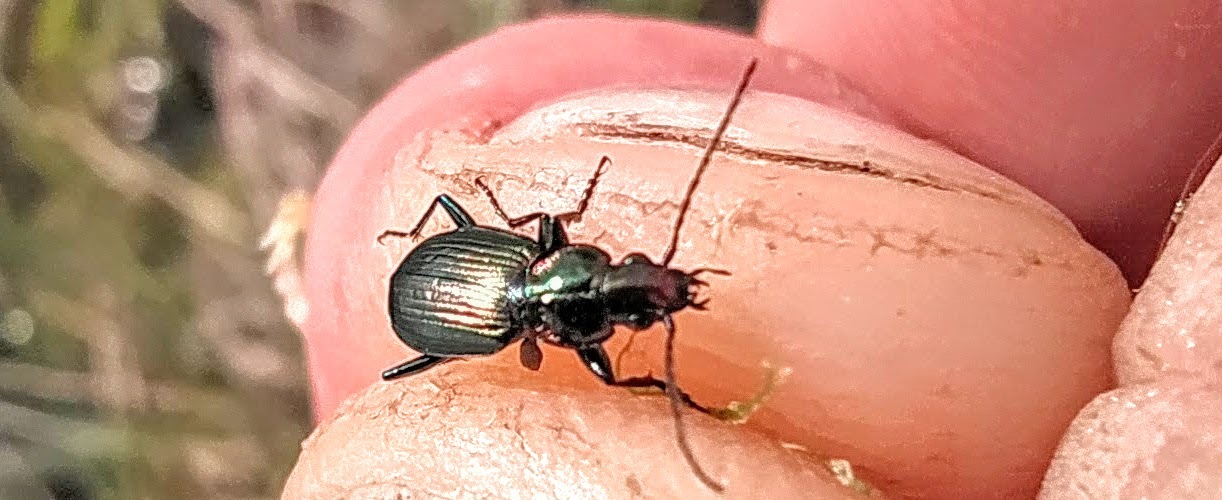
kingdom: Animalia
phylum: Arthropoda
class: Insecta
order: Coleoptera
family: Carabidae
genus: Agonum
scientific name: Agonum ericeti
